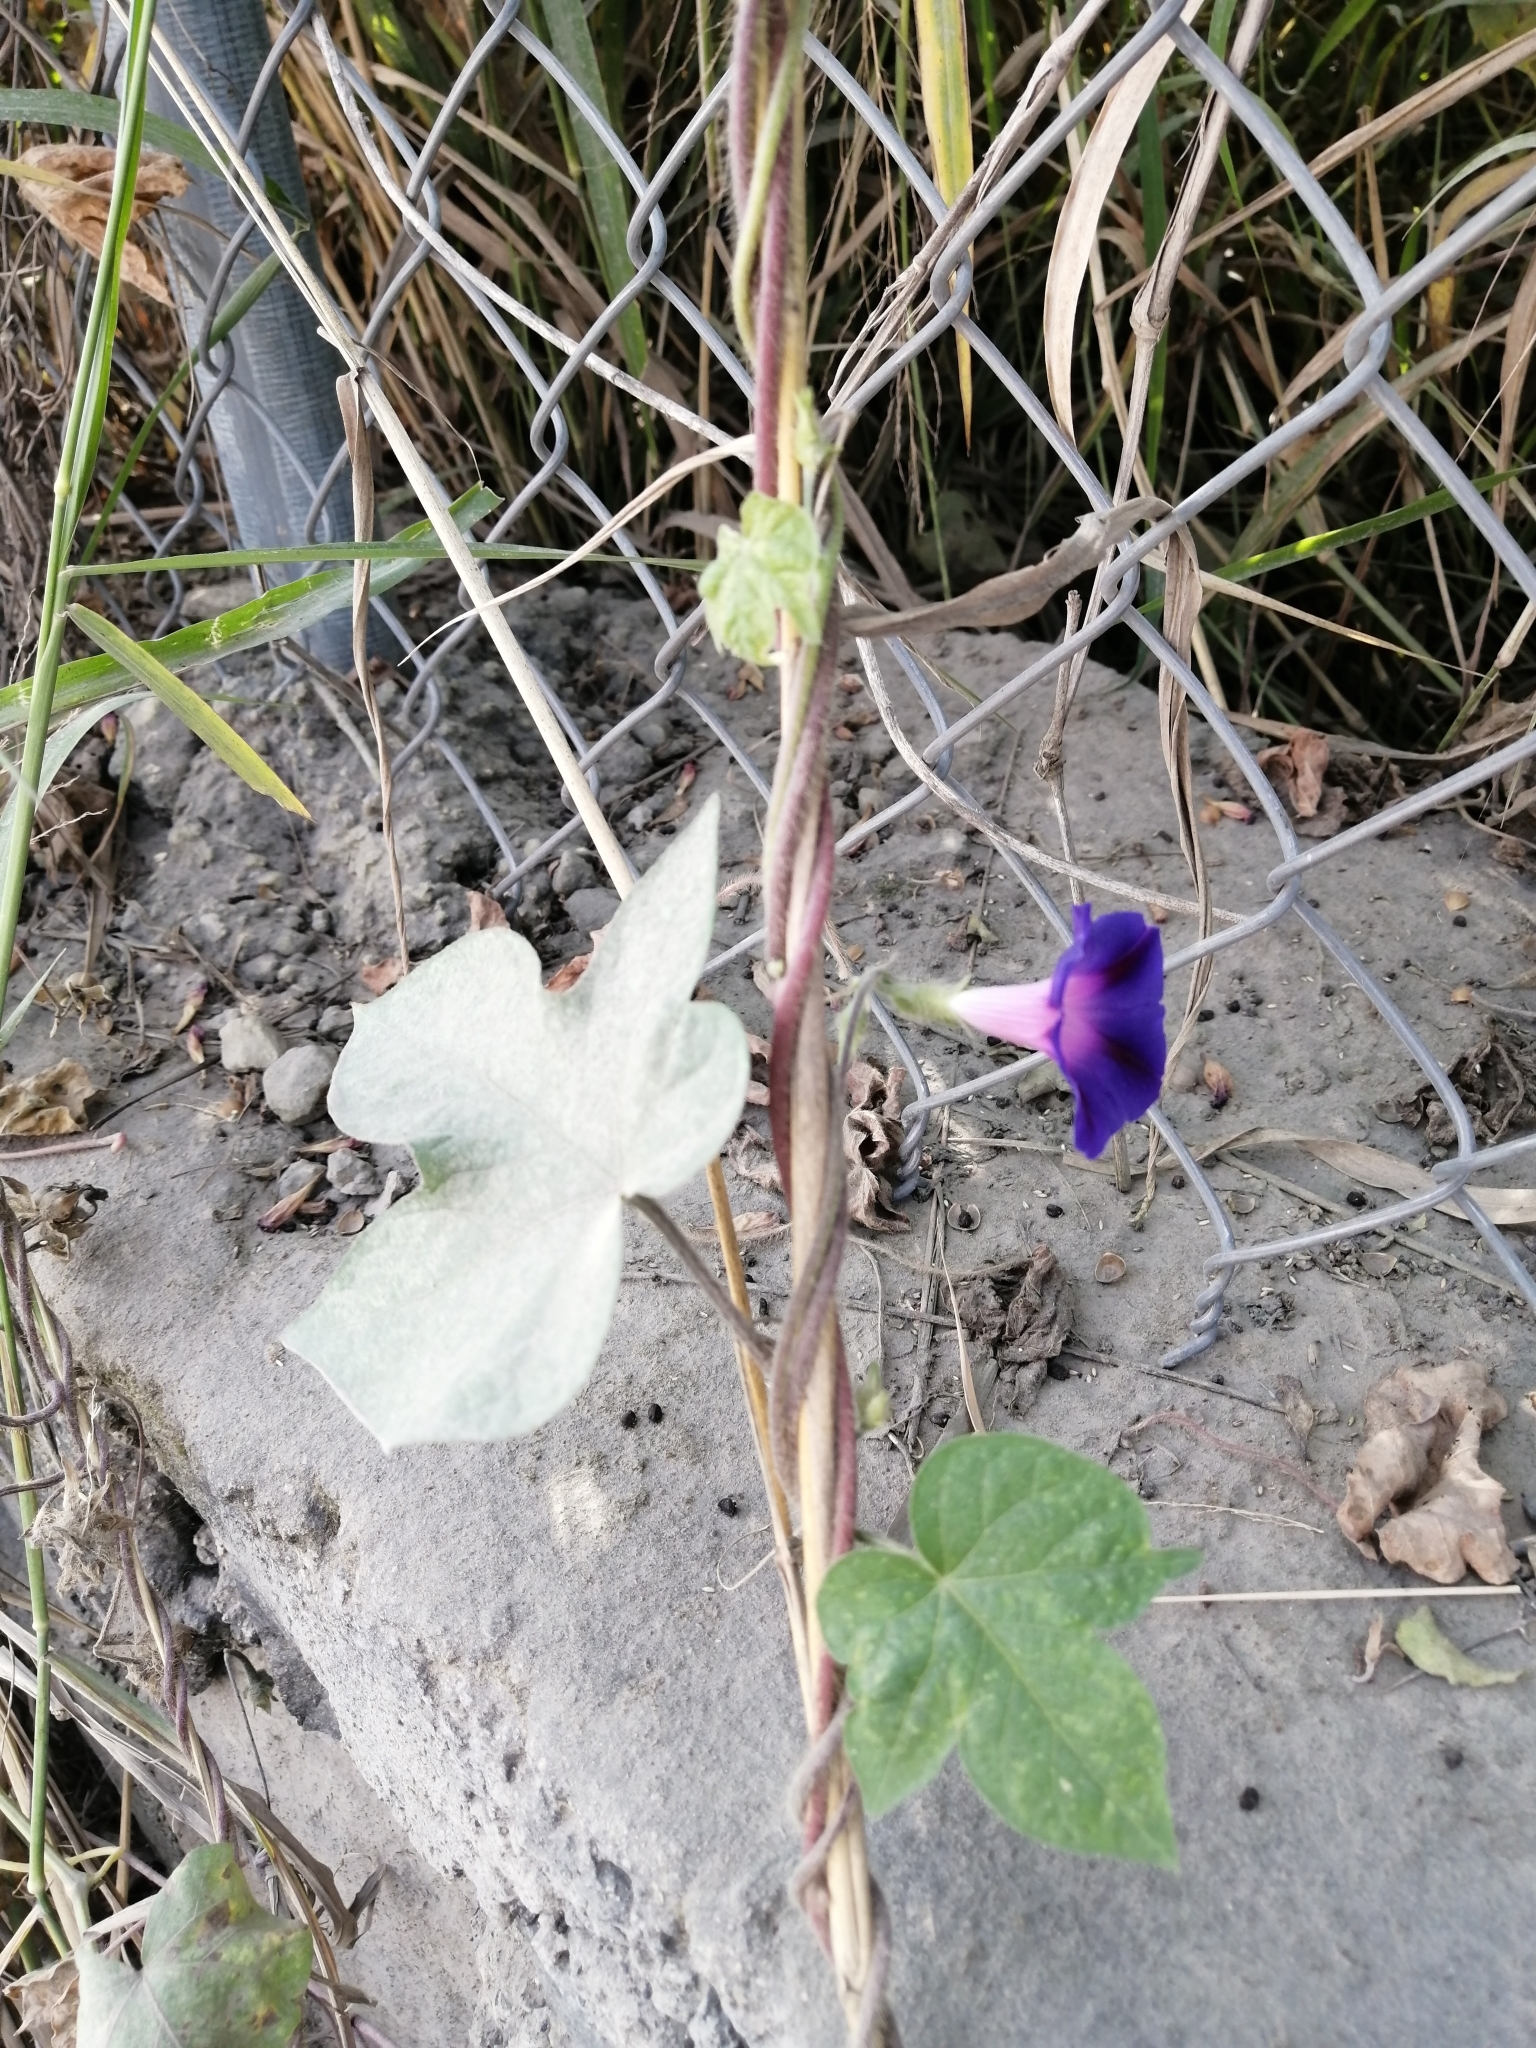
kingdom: Plantae
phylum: Tracheophyta
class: Magnoliopsida
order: Solanales
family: Convolvulaceae
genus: Ipomoea
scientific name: Ipomoea purpurea
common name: Common morning-glory
